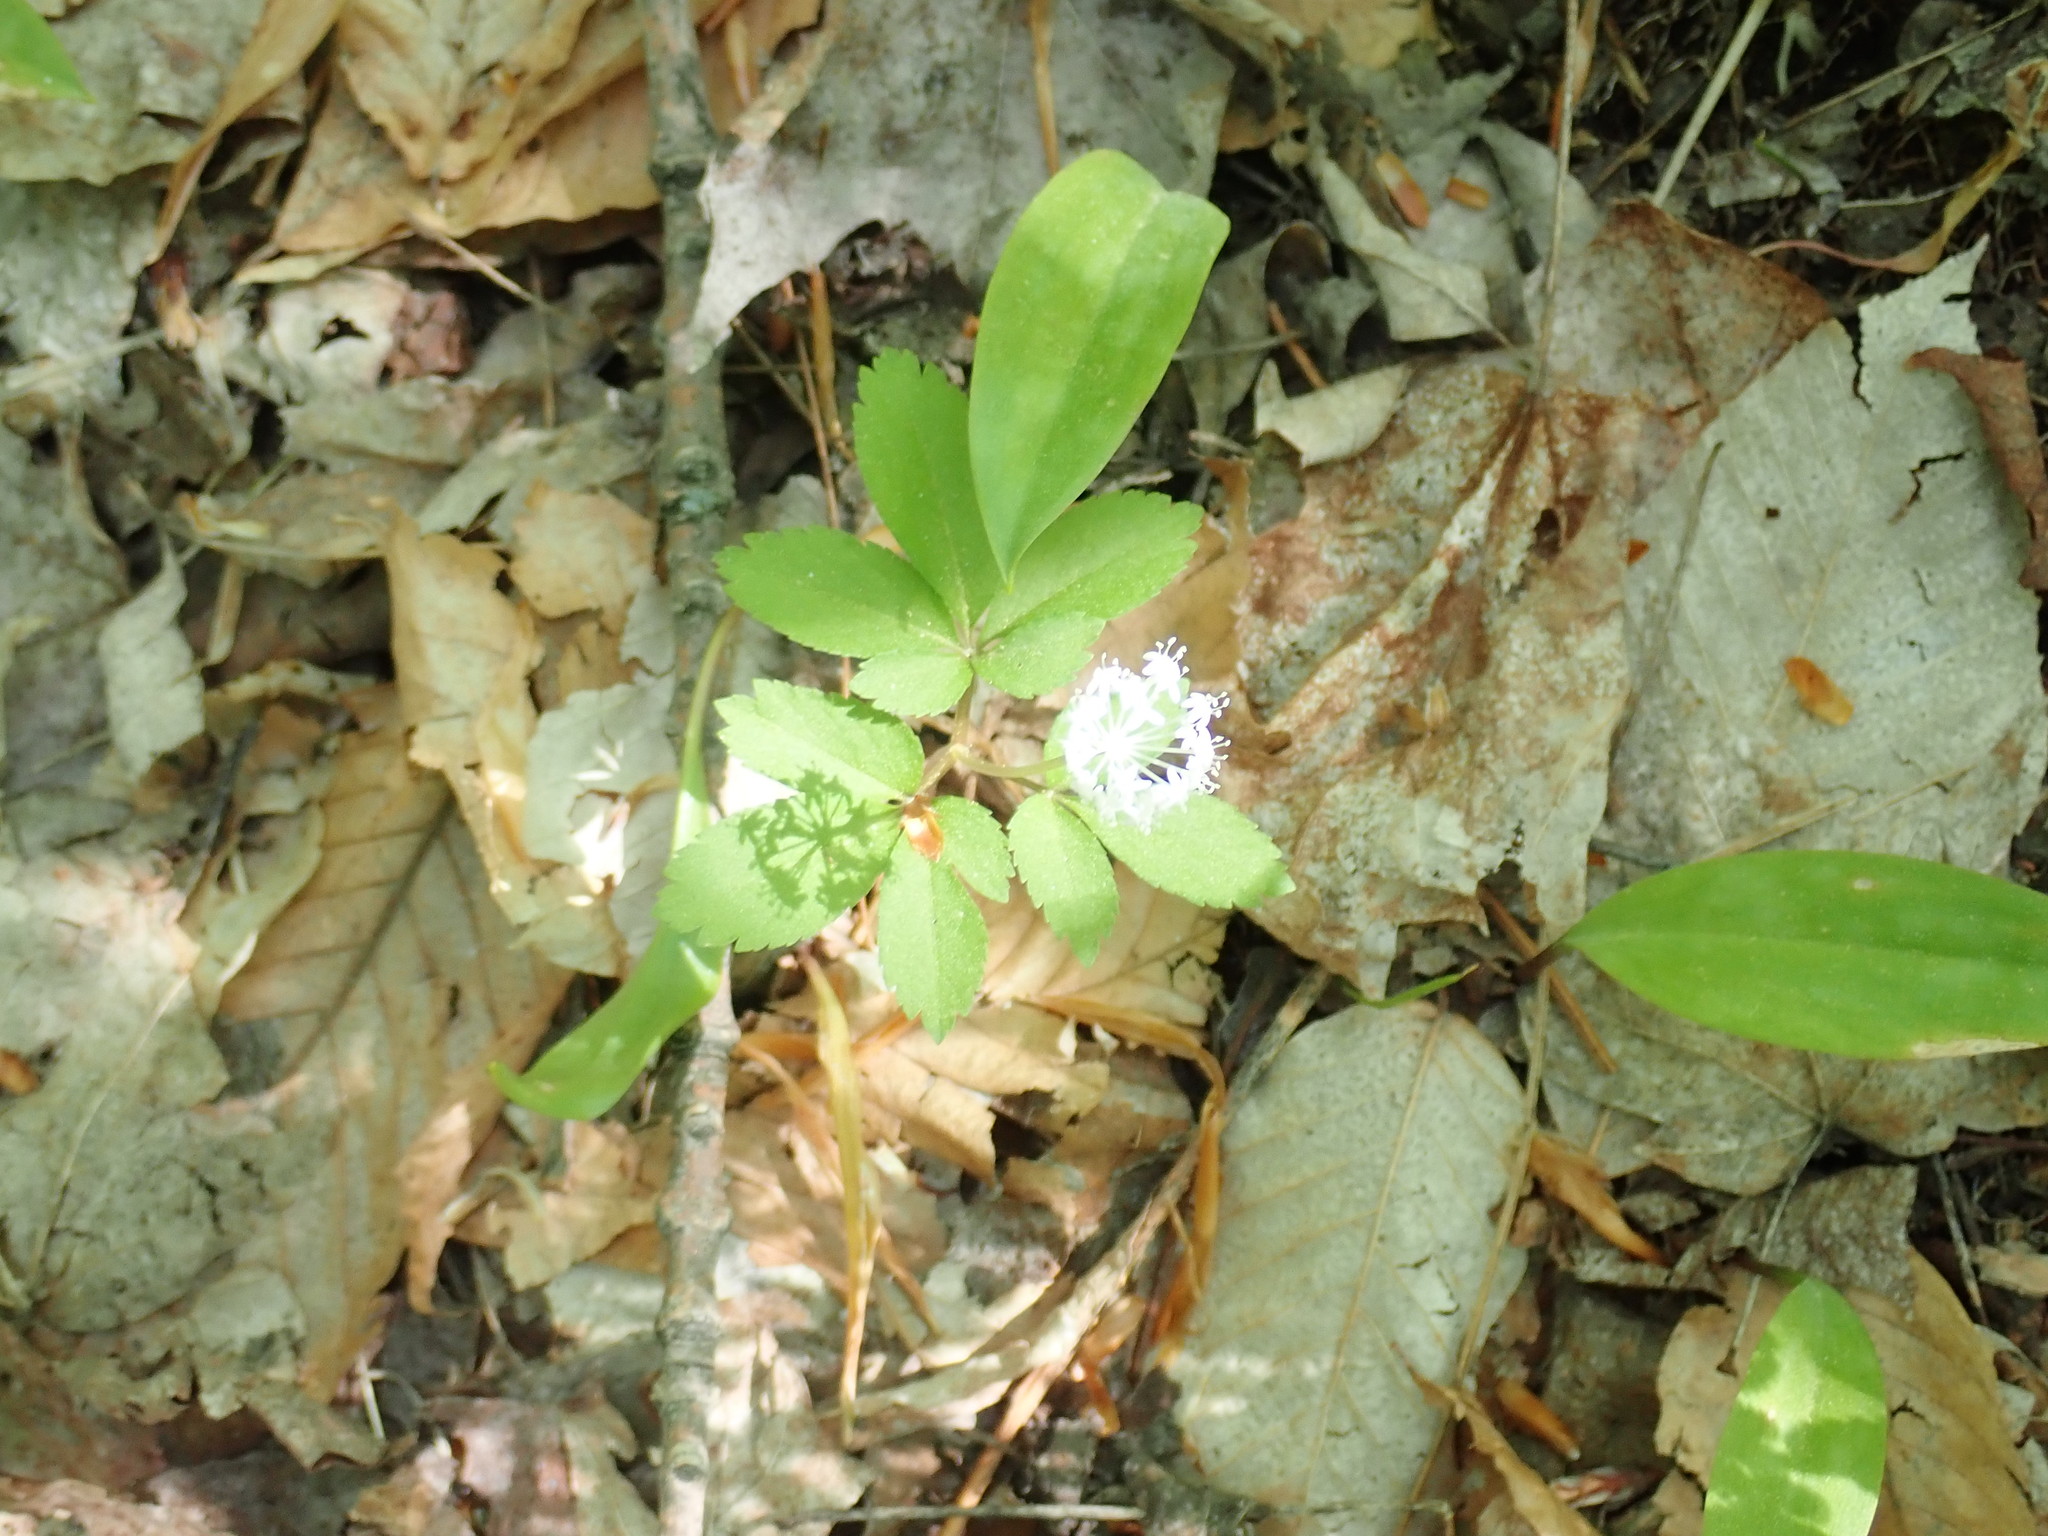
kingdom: Plantae
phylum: Tracheophyta
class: Magnoliopsida
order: Apiales
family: Araliaceae
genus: Panax
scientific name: Panax trifolius
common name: Dwarf ginseng
